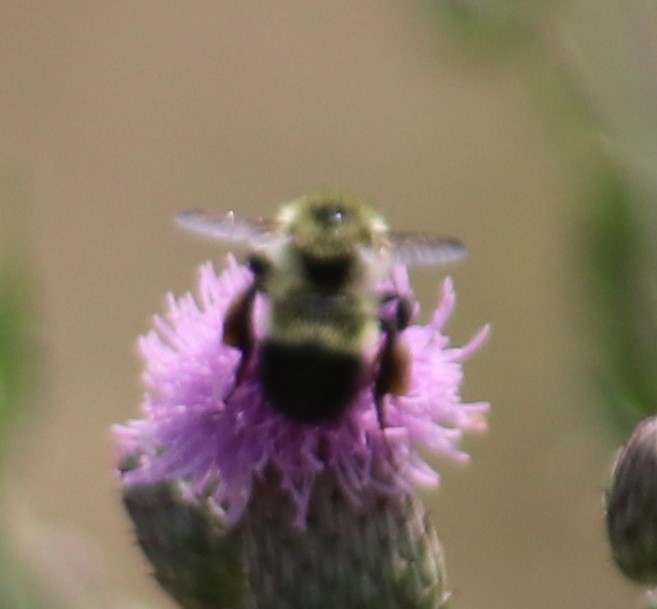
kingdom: Animalia
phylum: Arthropoda
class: Insecta
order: Hymenoptera
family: Apidae
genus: Pyrobombus
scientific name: Pyrobombus
